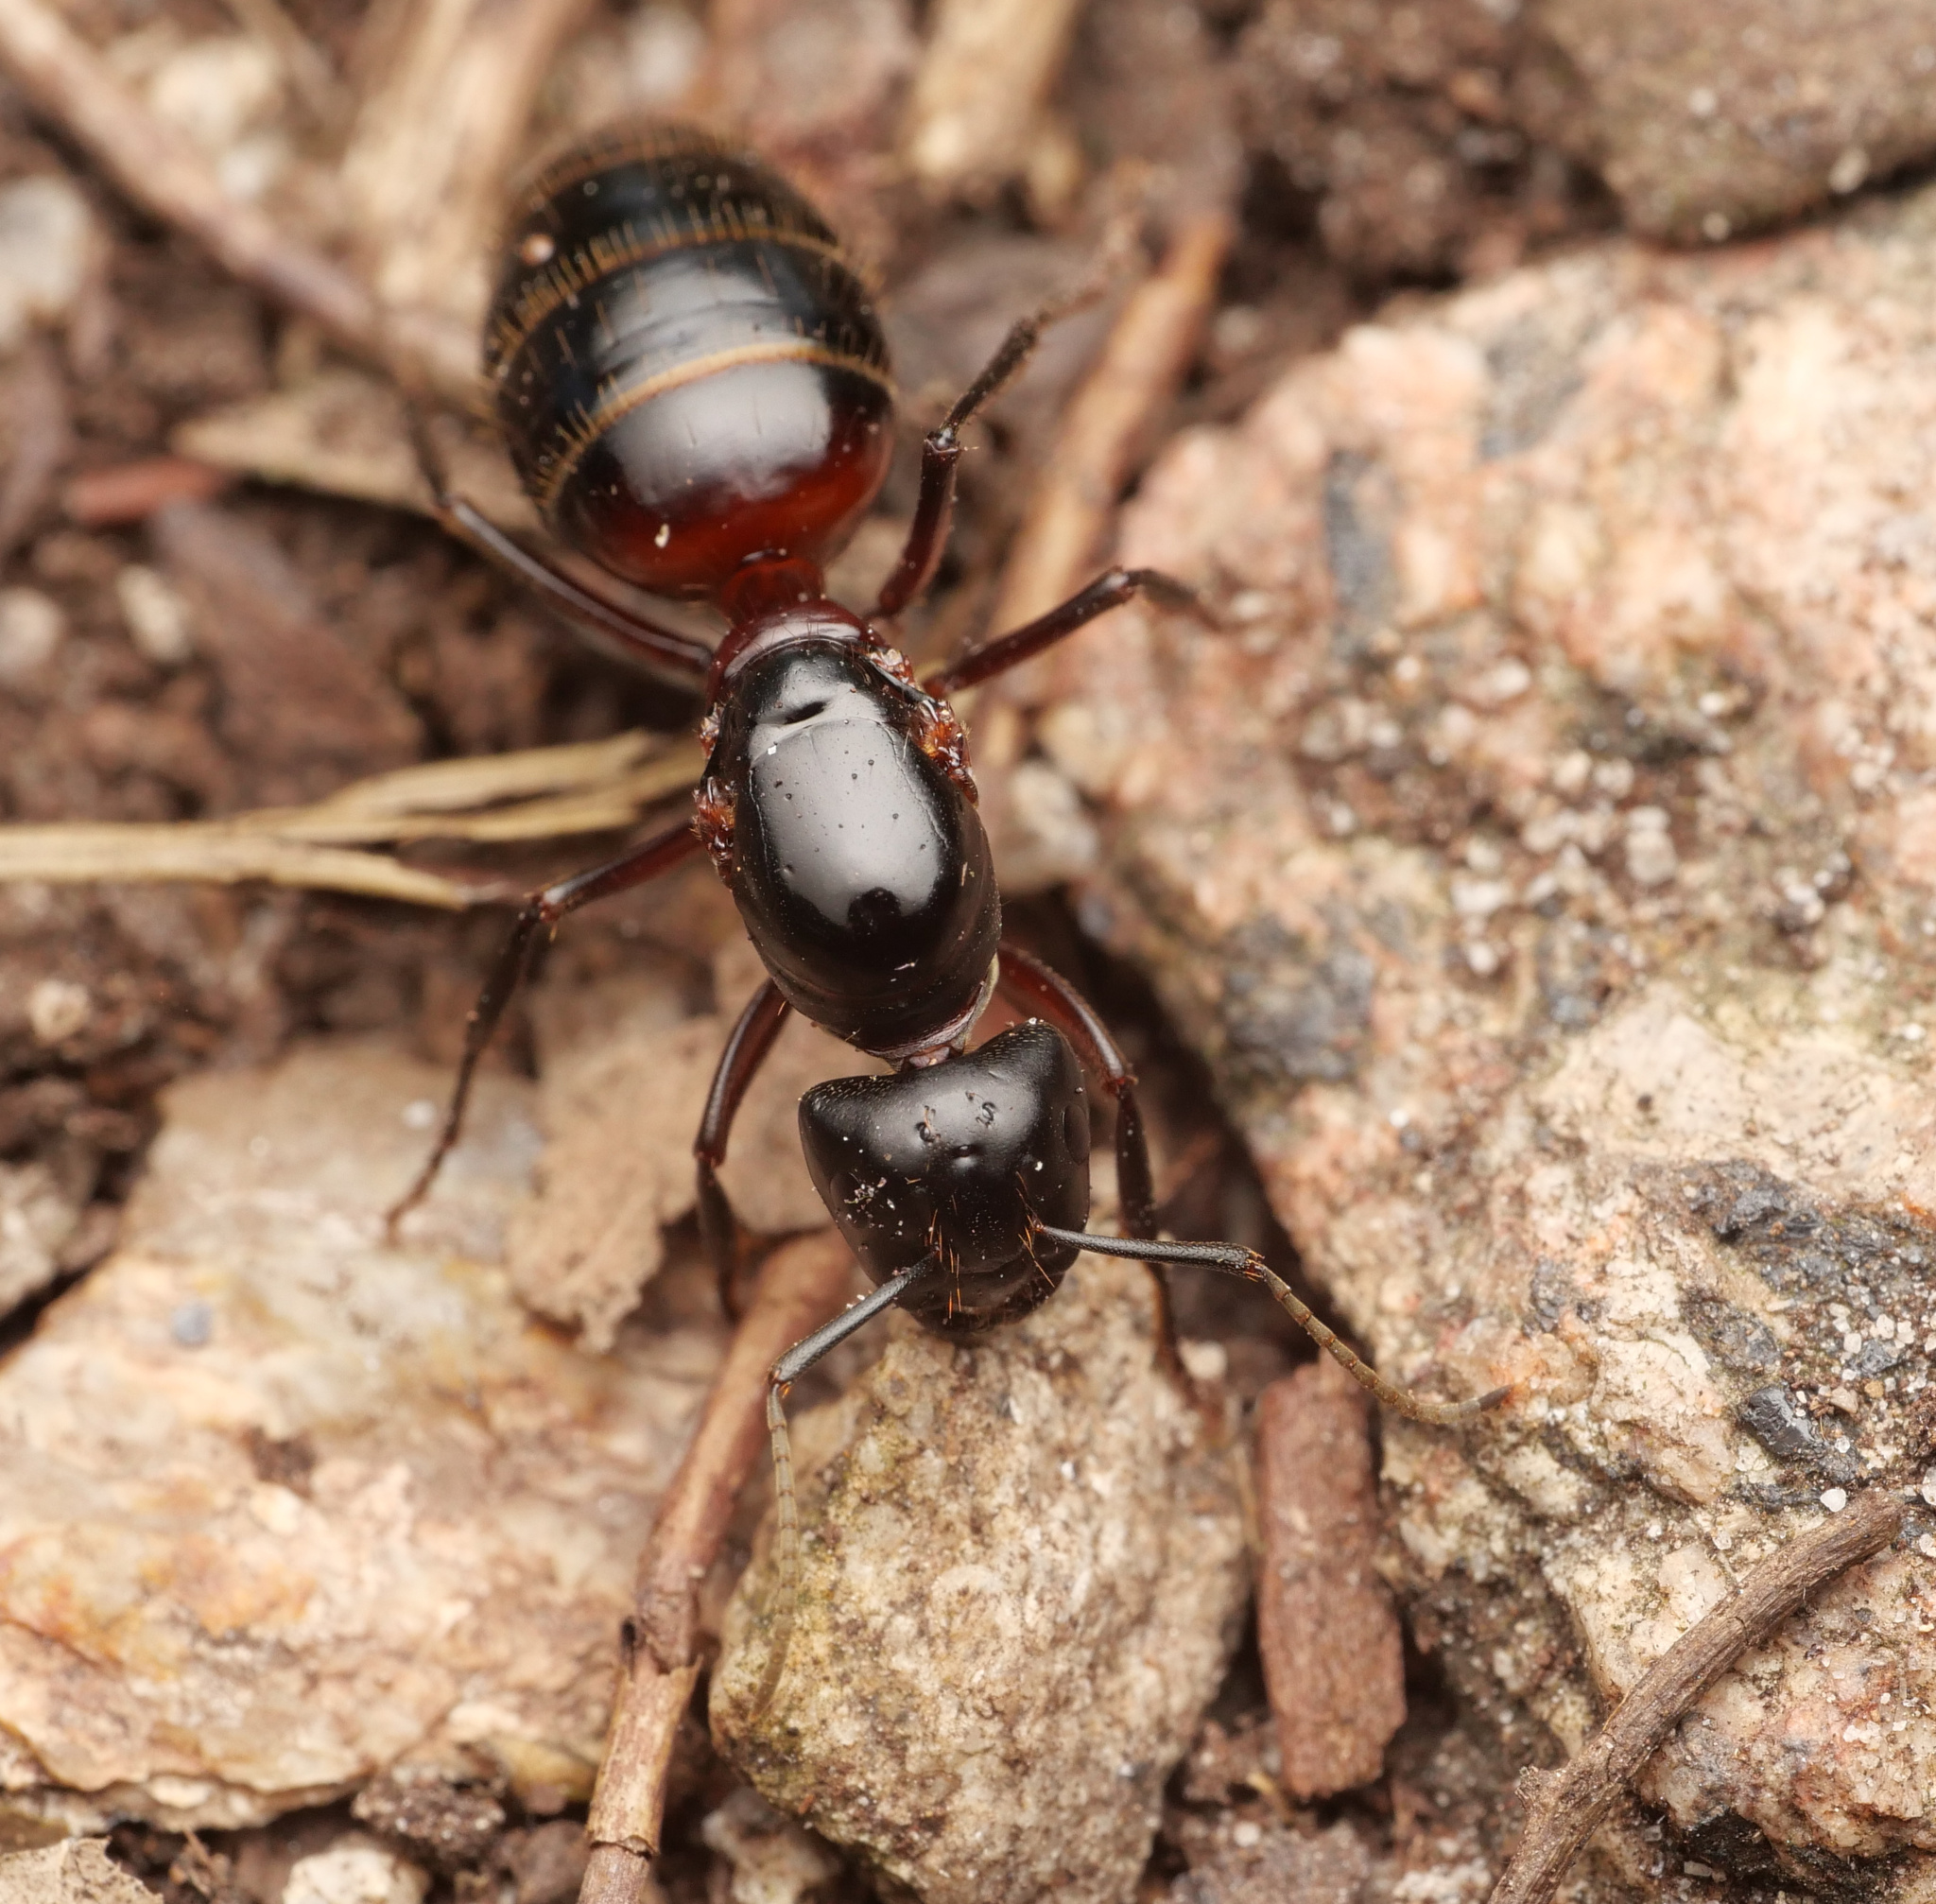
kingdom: Animalia
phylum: Arthropoda
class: Insecta
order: Hymenoptera
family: Formicidae
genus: Camponotus
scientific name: Camponotus ligniperdus
